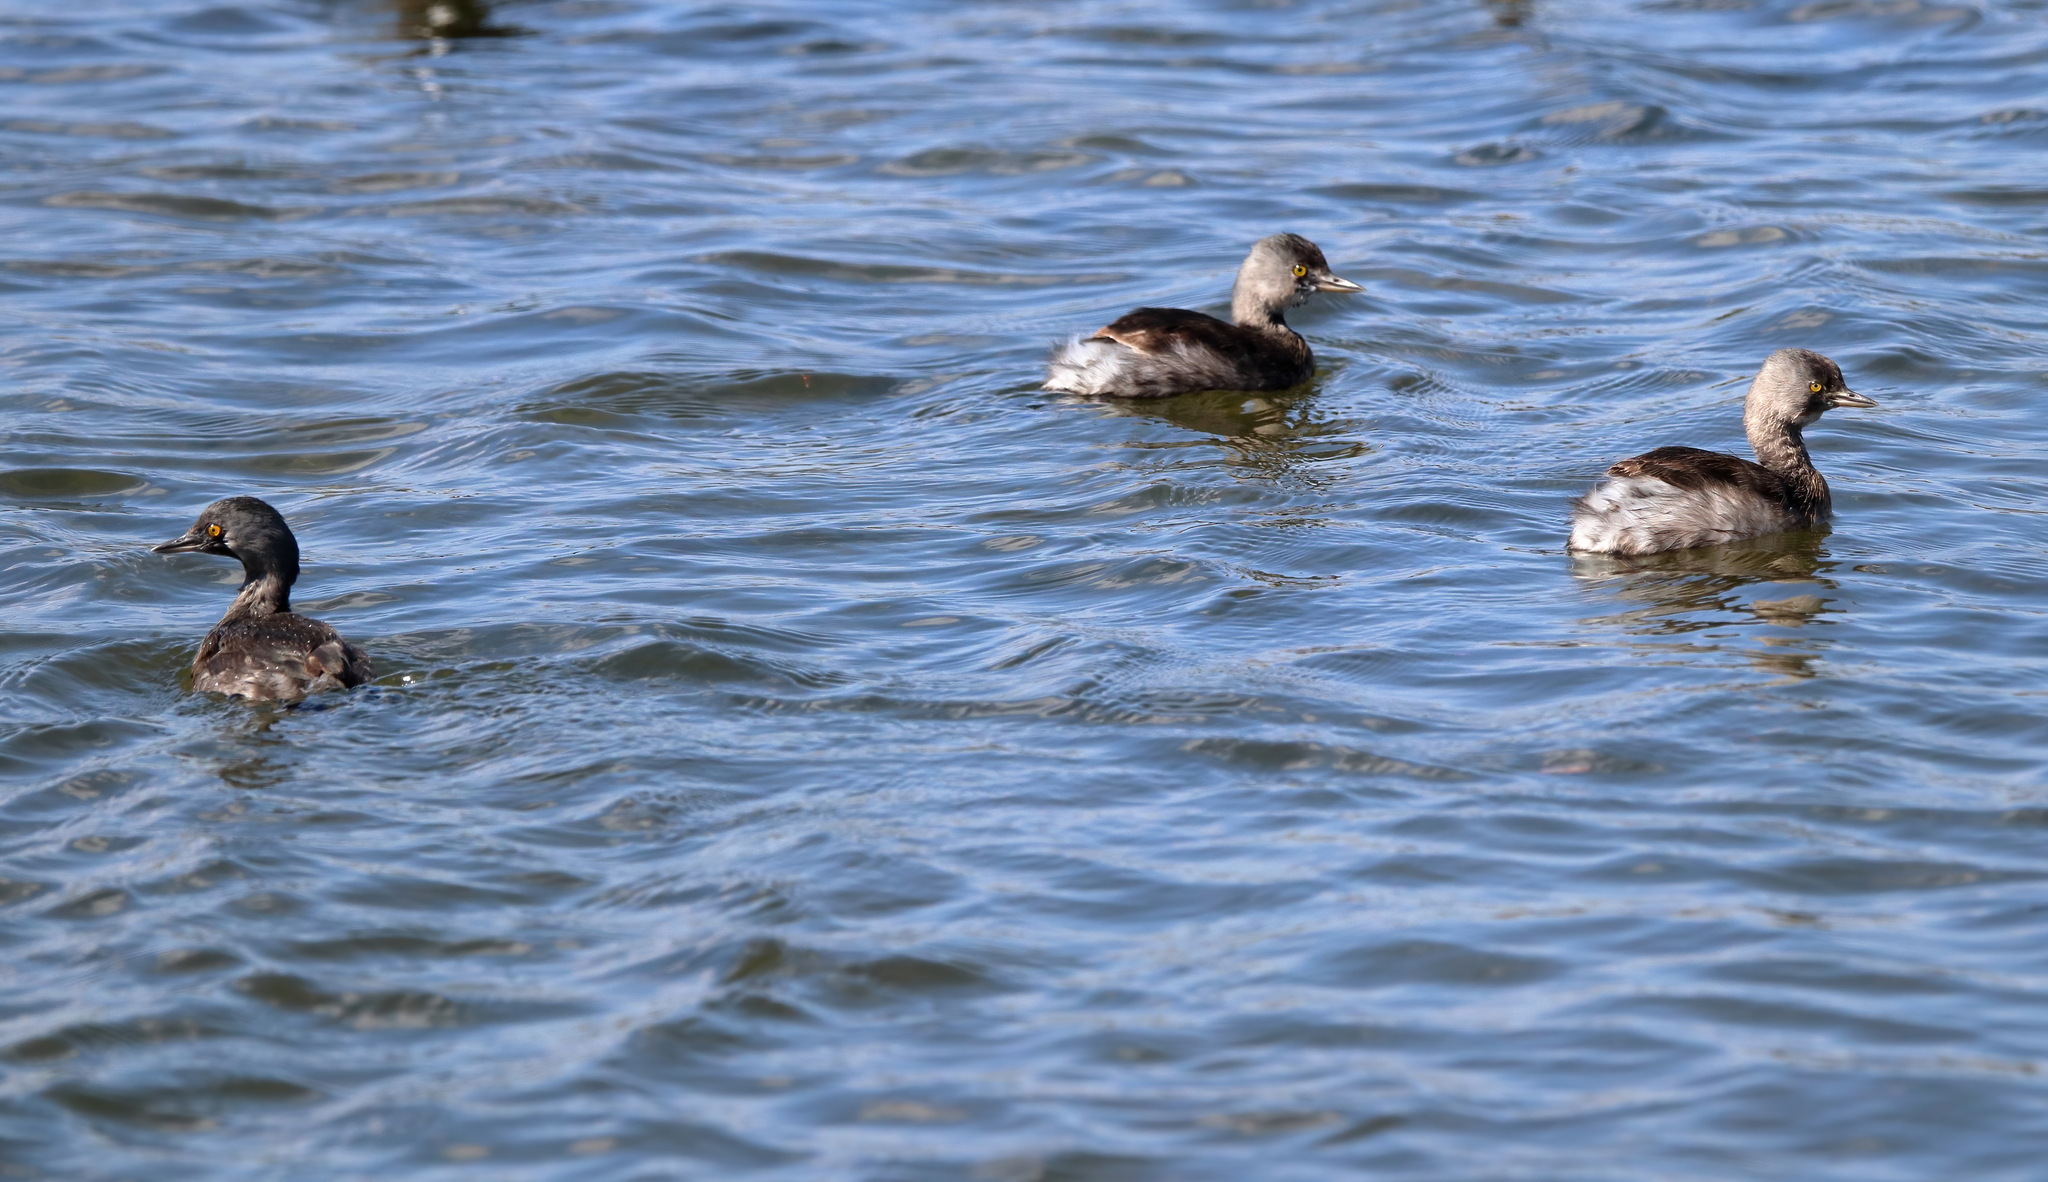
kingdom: Animalia
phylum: Chordata
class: Aves
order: Podicipediformes
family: Podicipedidae
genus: Tachybaptus
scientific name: Tachybaptus dominicus
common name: Least grebe
